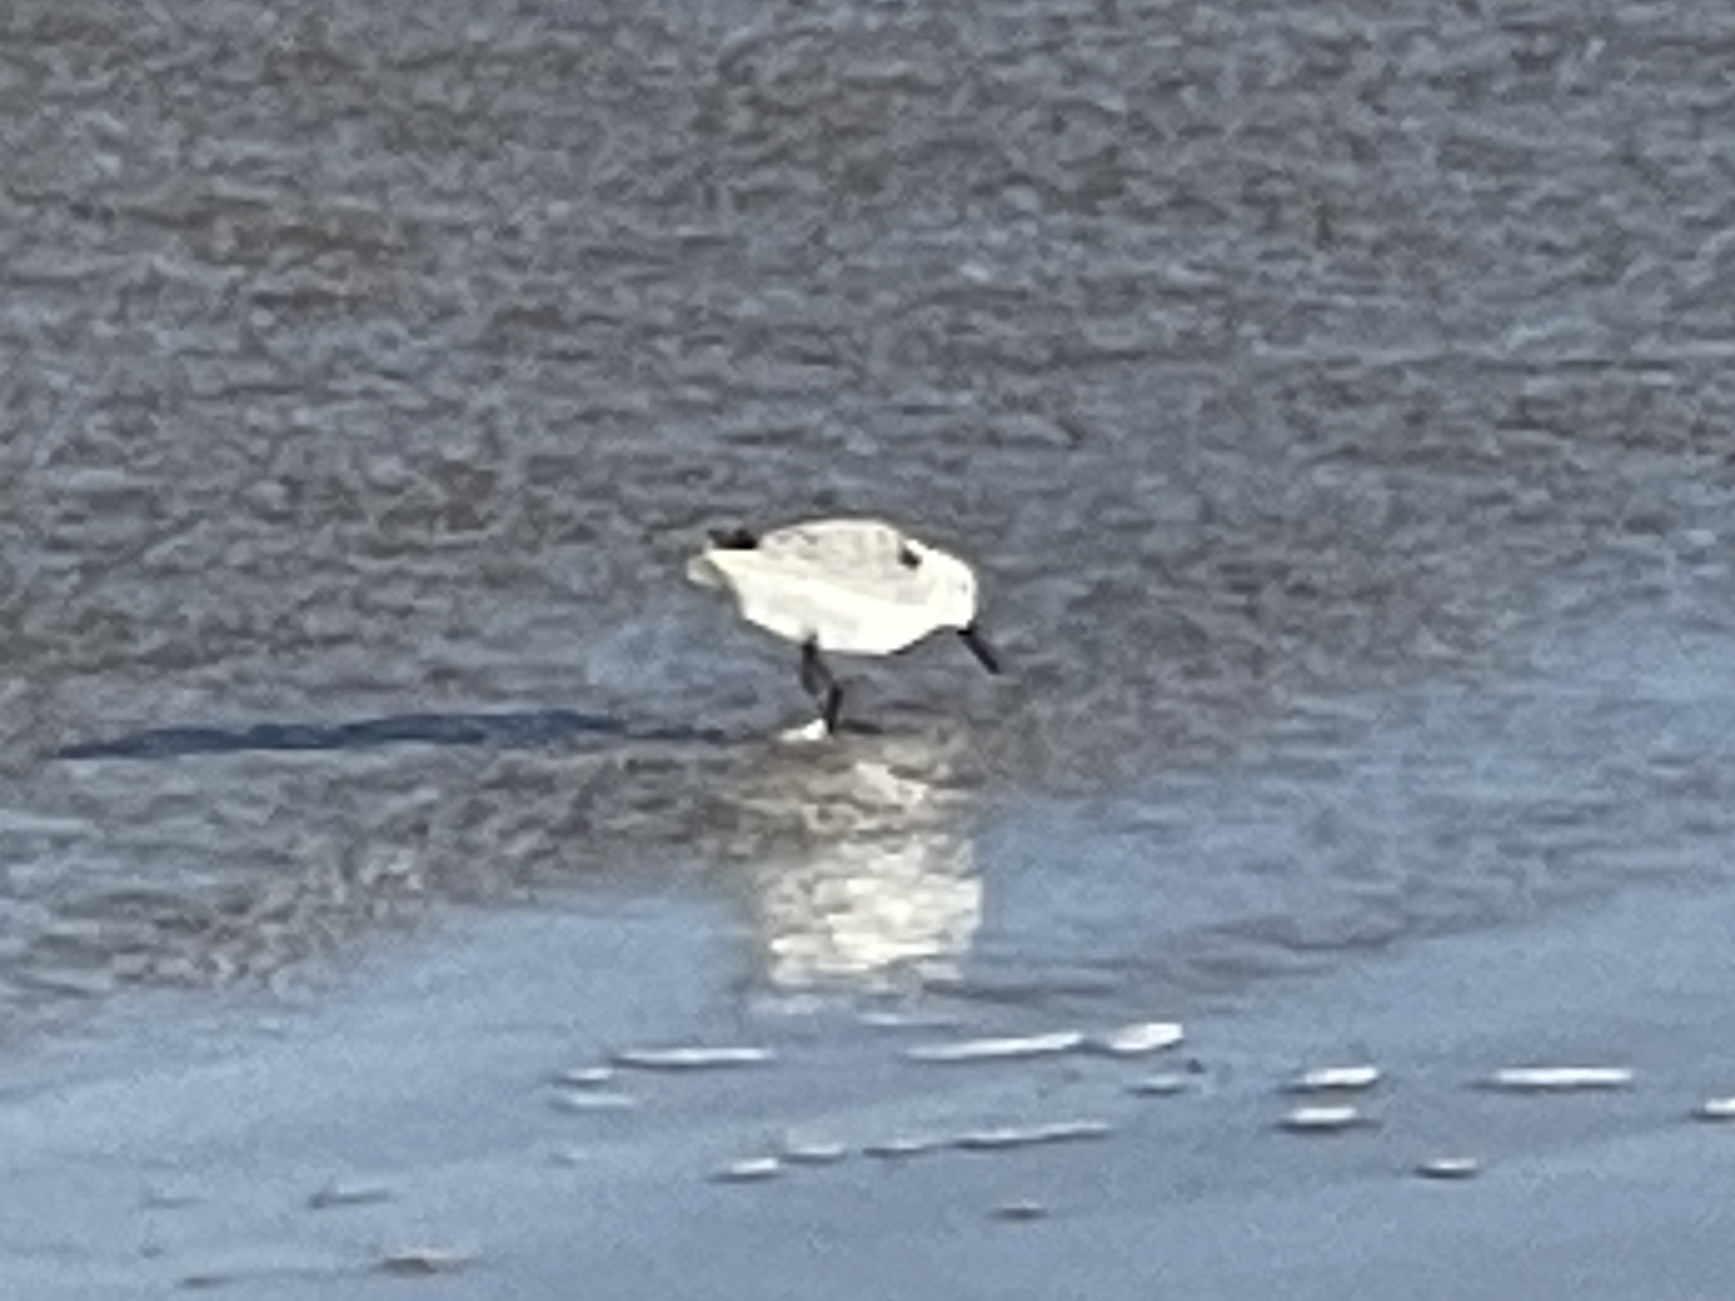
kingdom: Animalia
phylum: Chordata
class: Aves
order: Charadriiformes
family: Scolopacidae
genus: Calidris
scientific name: Calidris alba
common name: Sanderling
